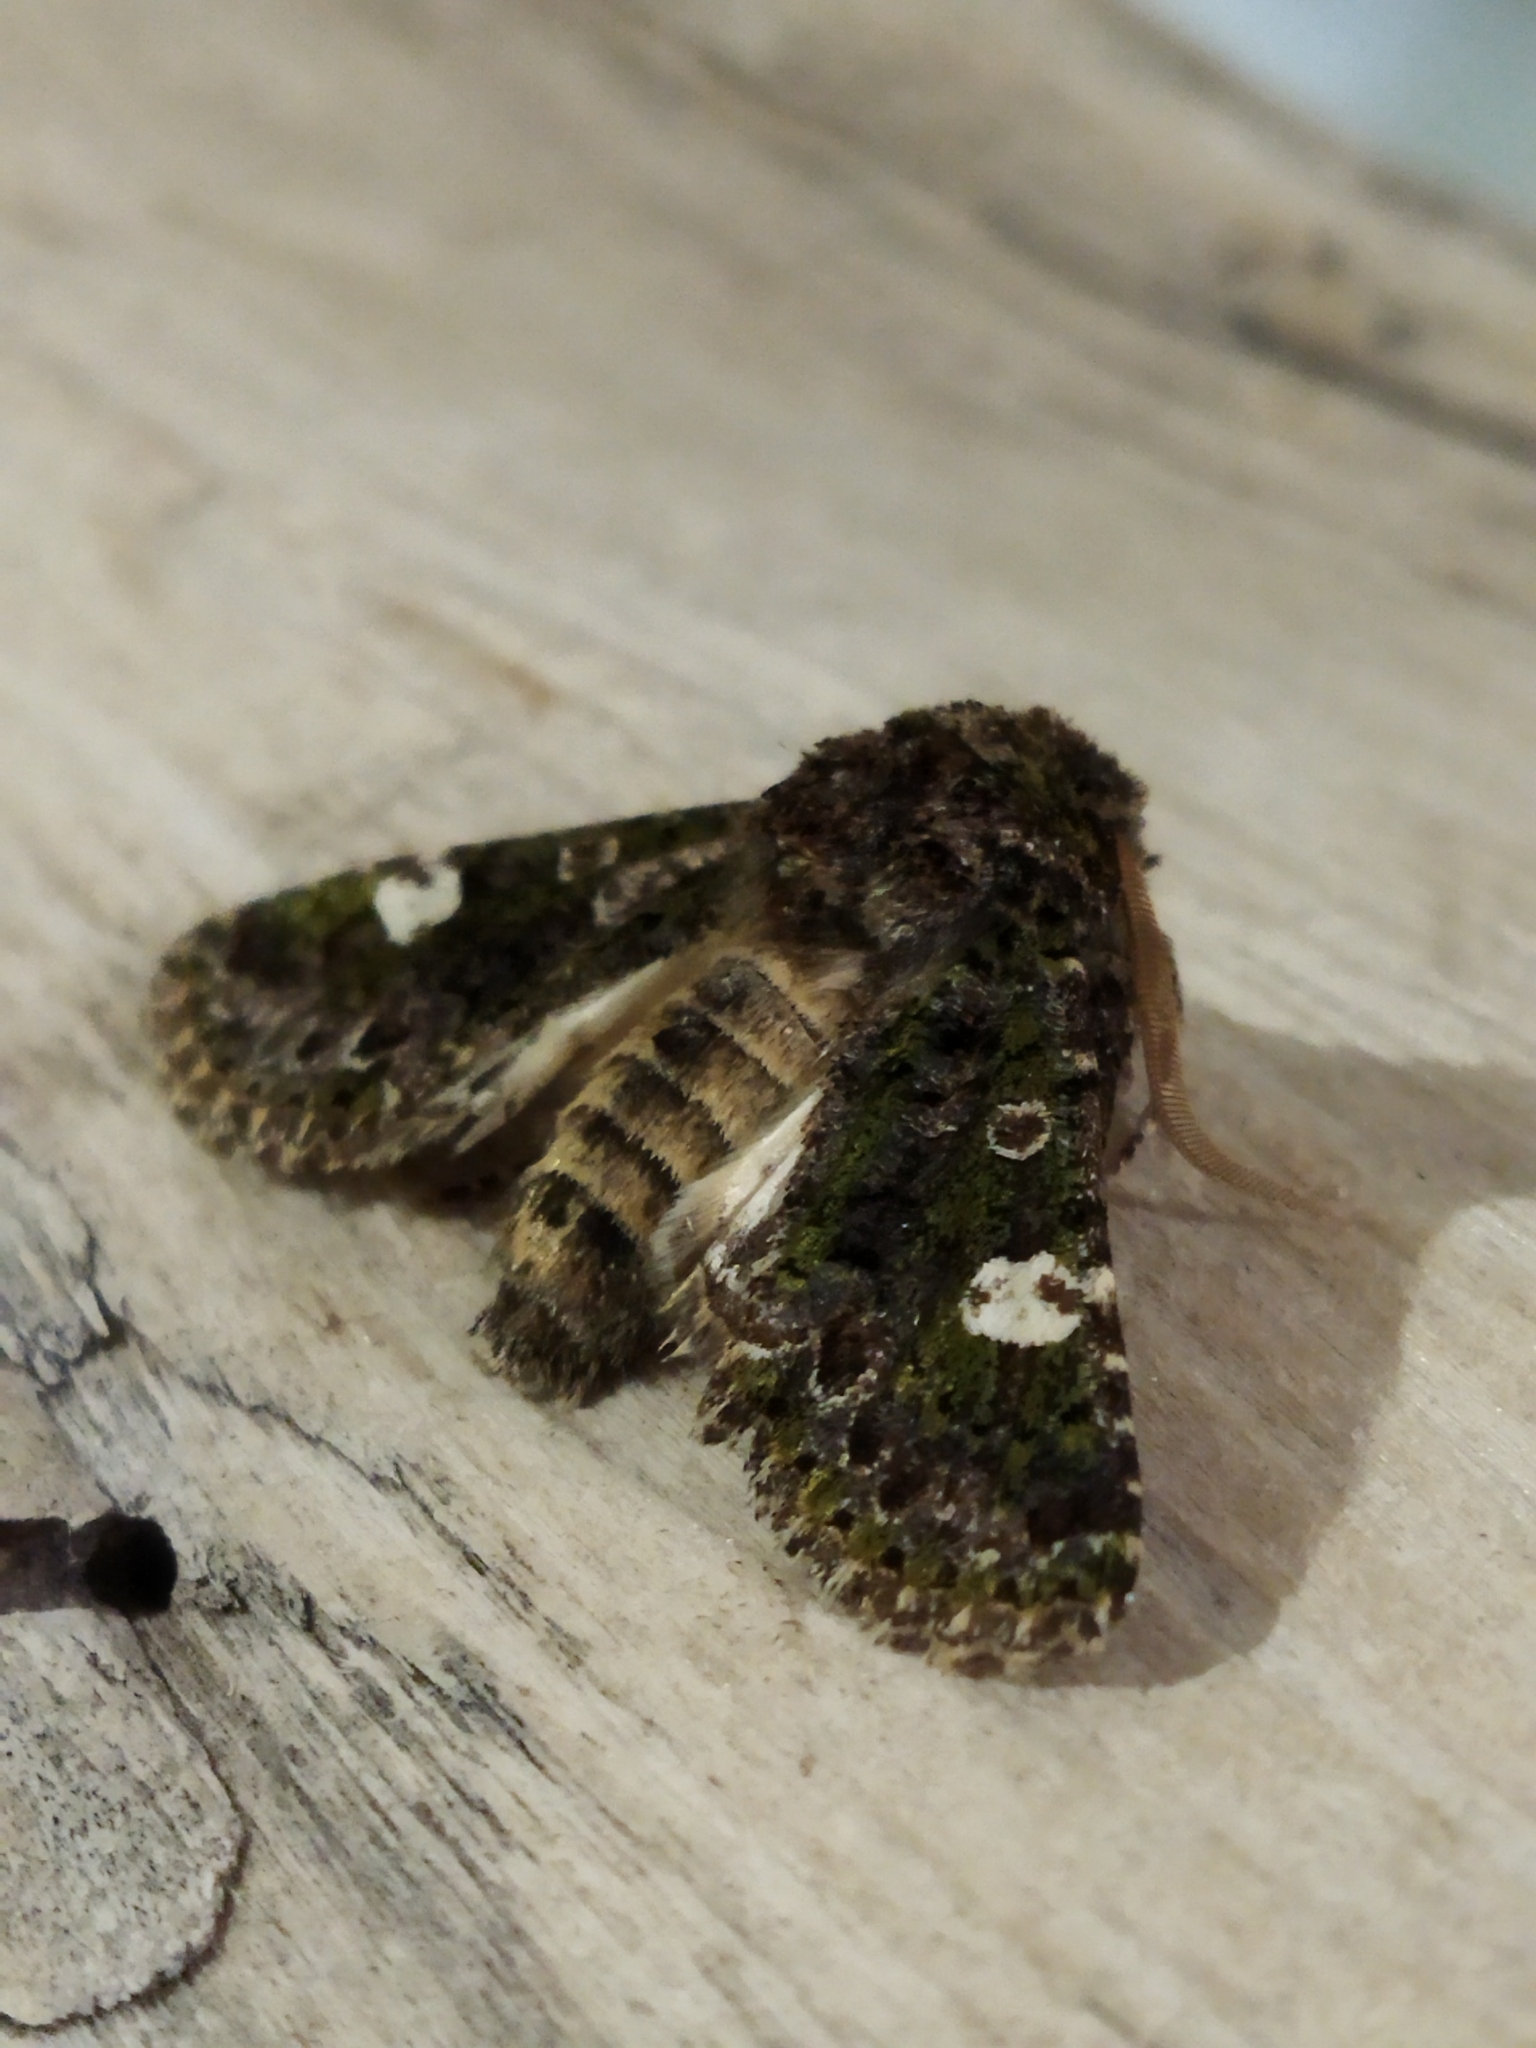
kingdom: Animalia
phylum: Arthropoda
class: Insecta
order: Lepidoptera
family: Noctuidae
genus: Valeria
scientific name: Valeria oleagina
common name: Green-brindled dot
